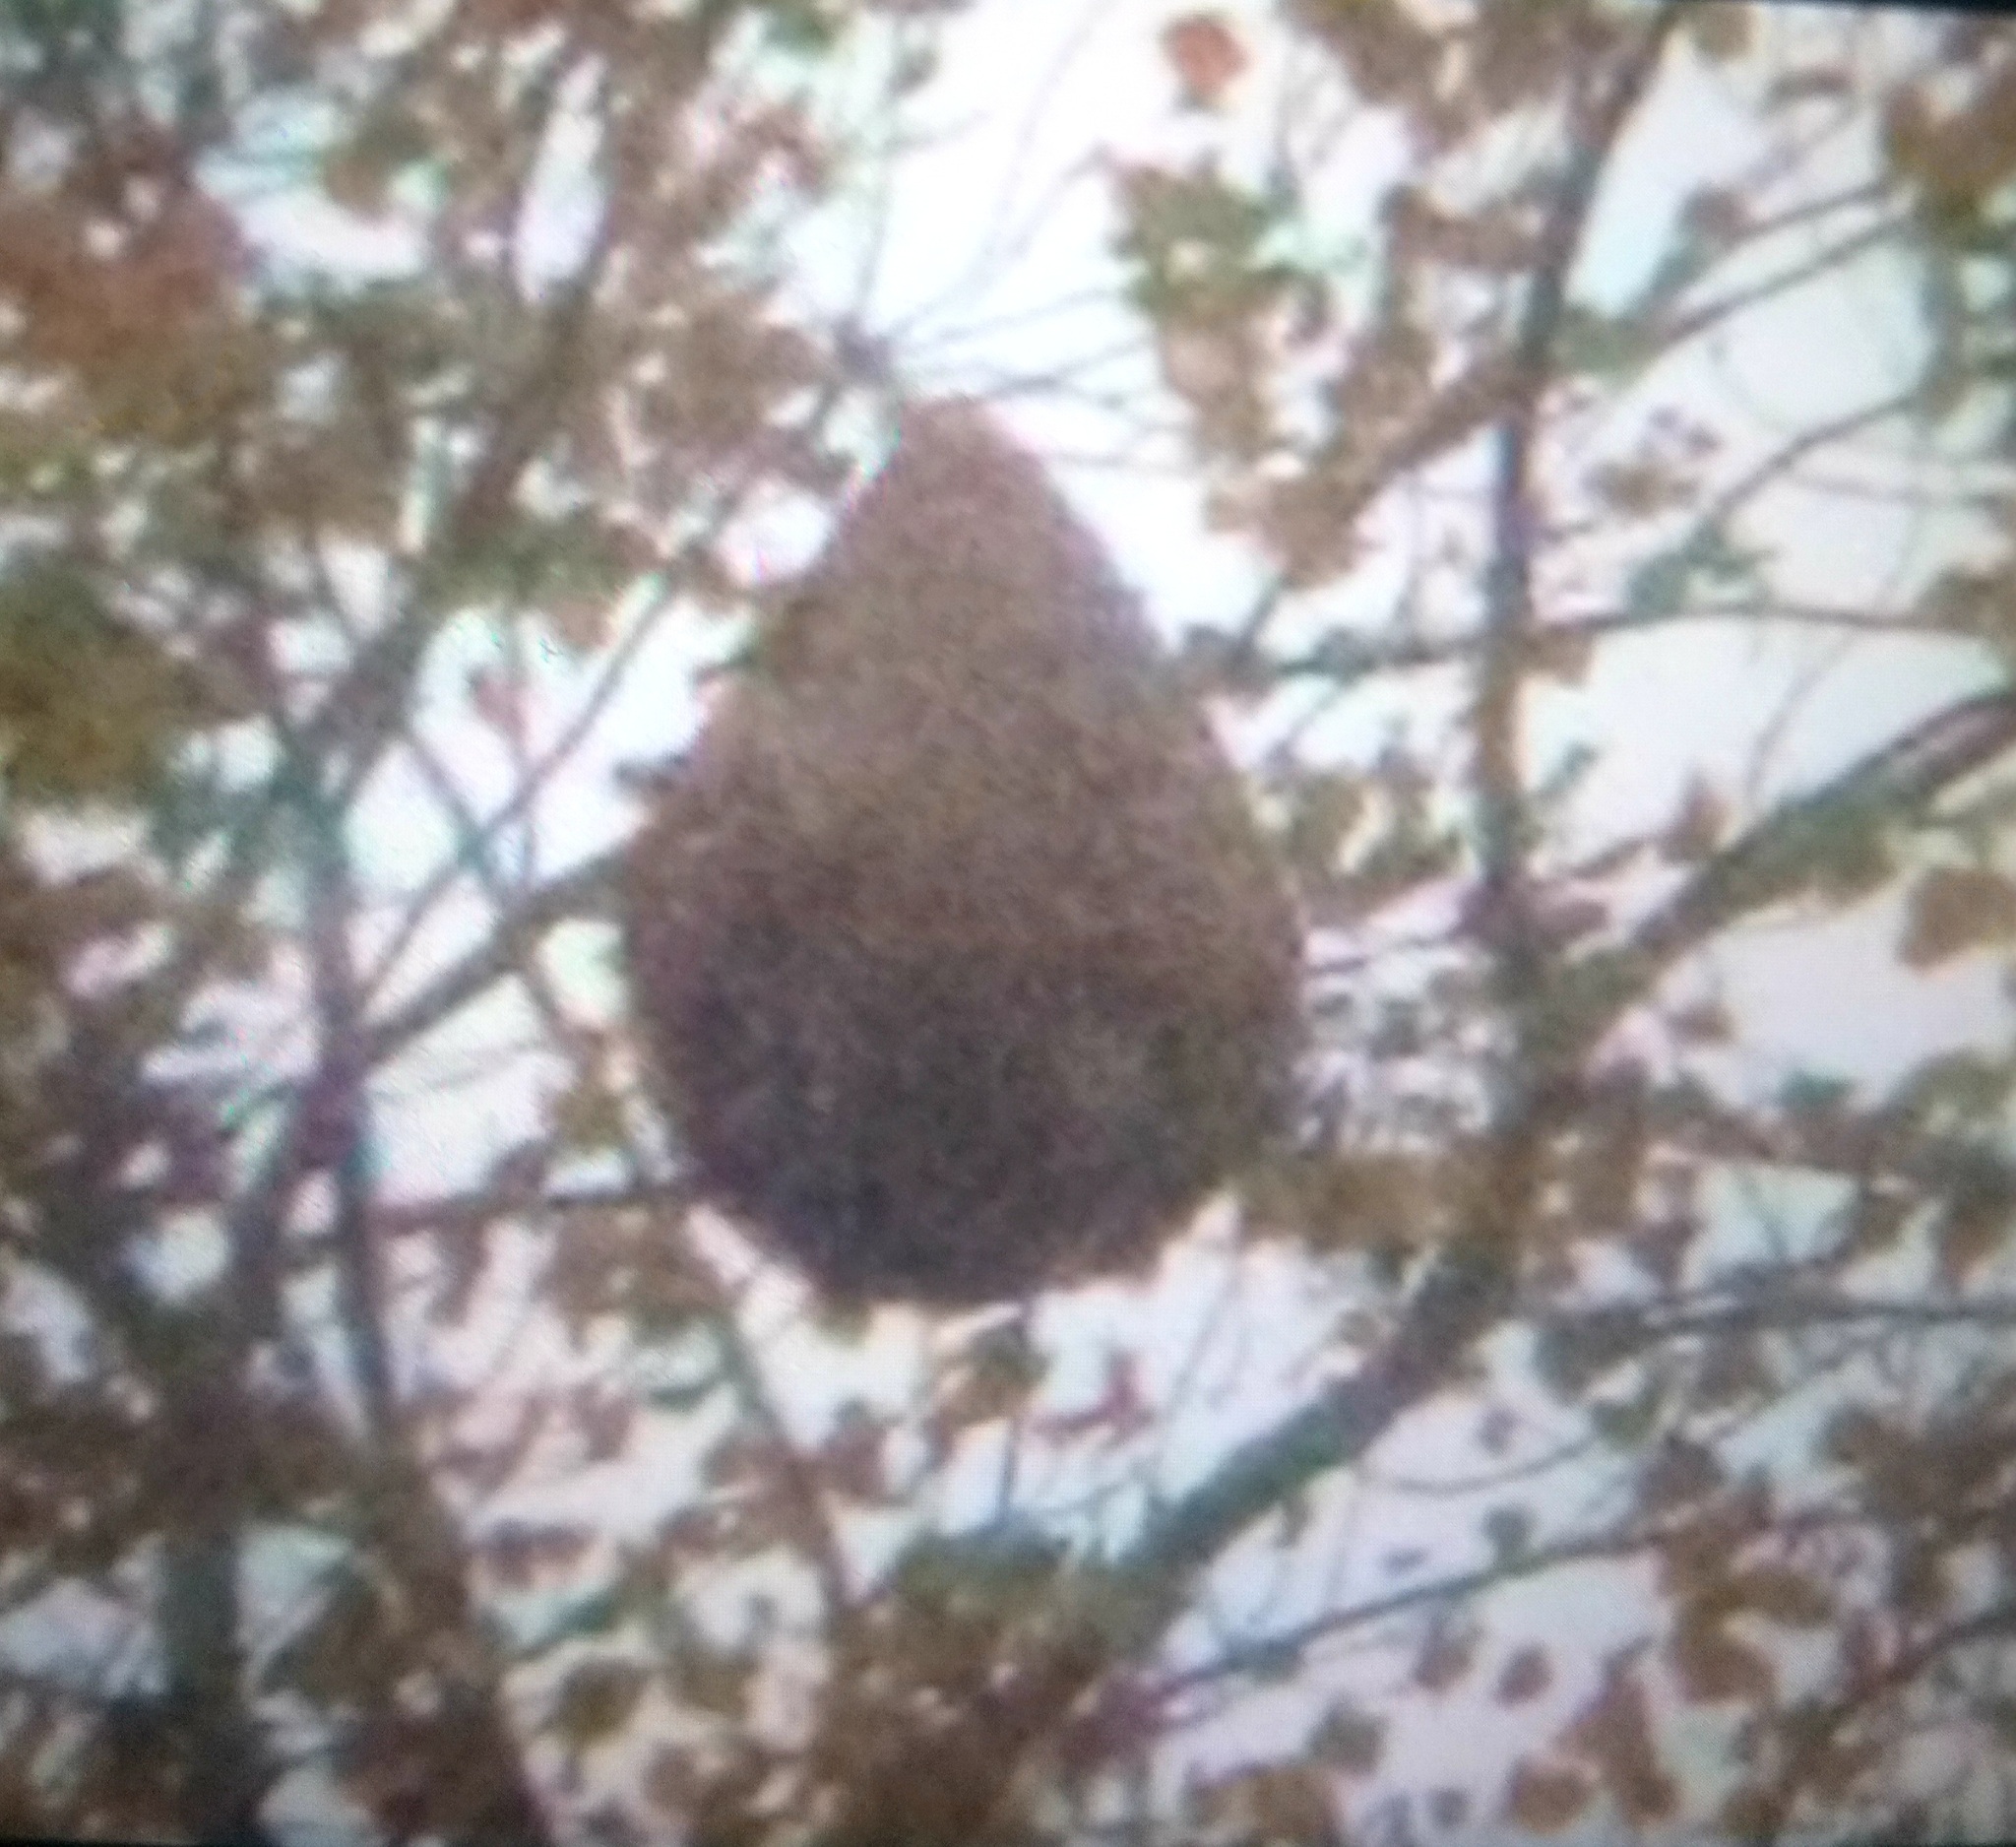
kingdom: Animalia
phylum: Arthropoda
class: Insecta
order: Hymenoptera
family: Vespidae
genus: Vespa
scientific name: Vespa velutina
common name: Asian hornet
